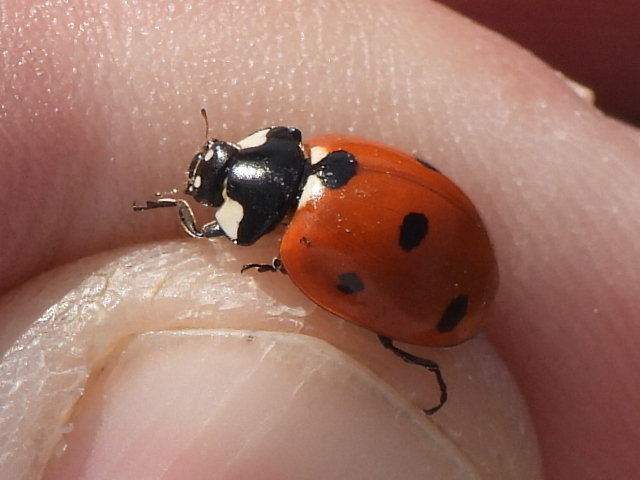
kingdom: Animalia
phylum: Arthropoda
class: Insecta
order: Coleoptera
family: Coccinellidae
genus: Coccinella
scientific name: Coccinella septempunctata
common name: Sevenspotted lady beetle
